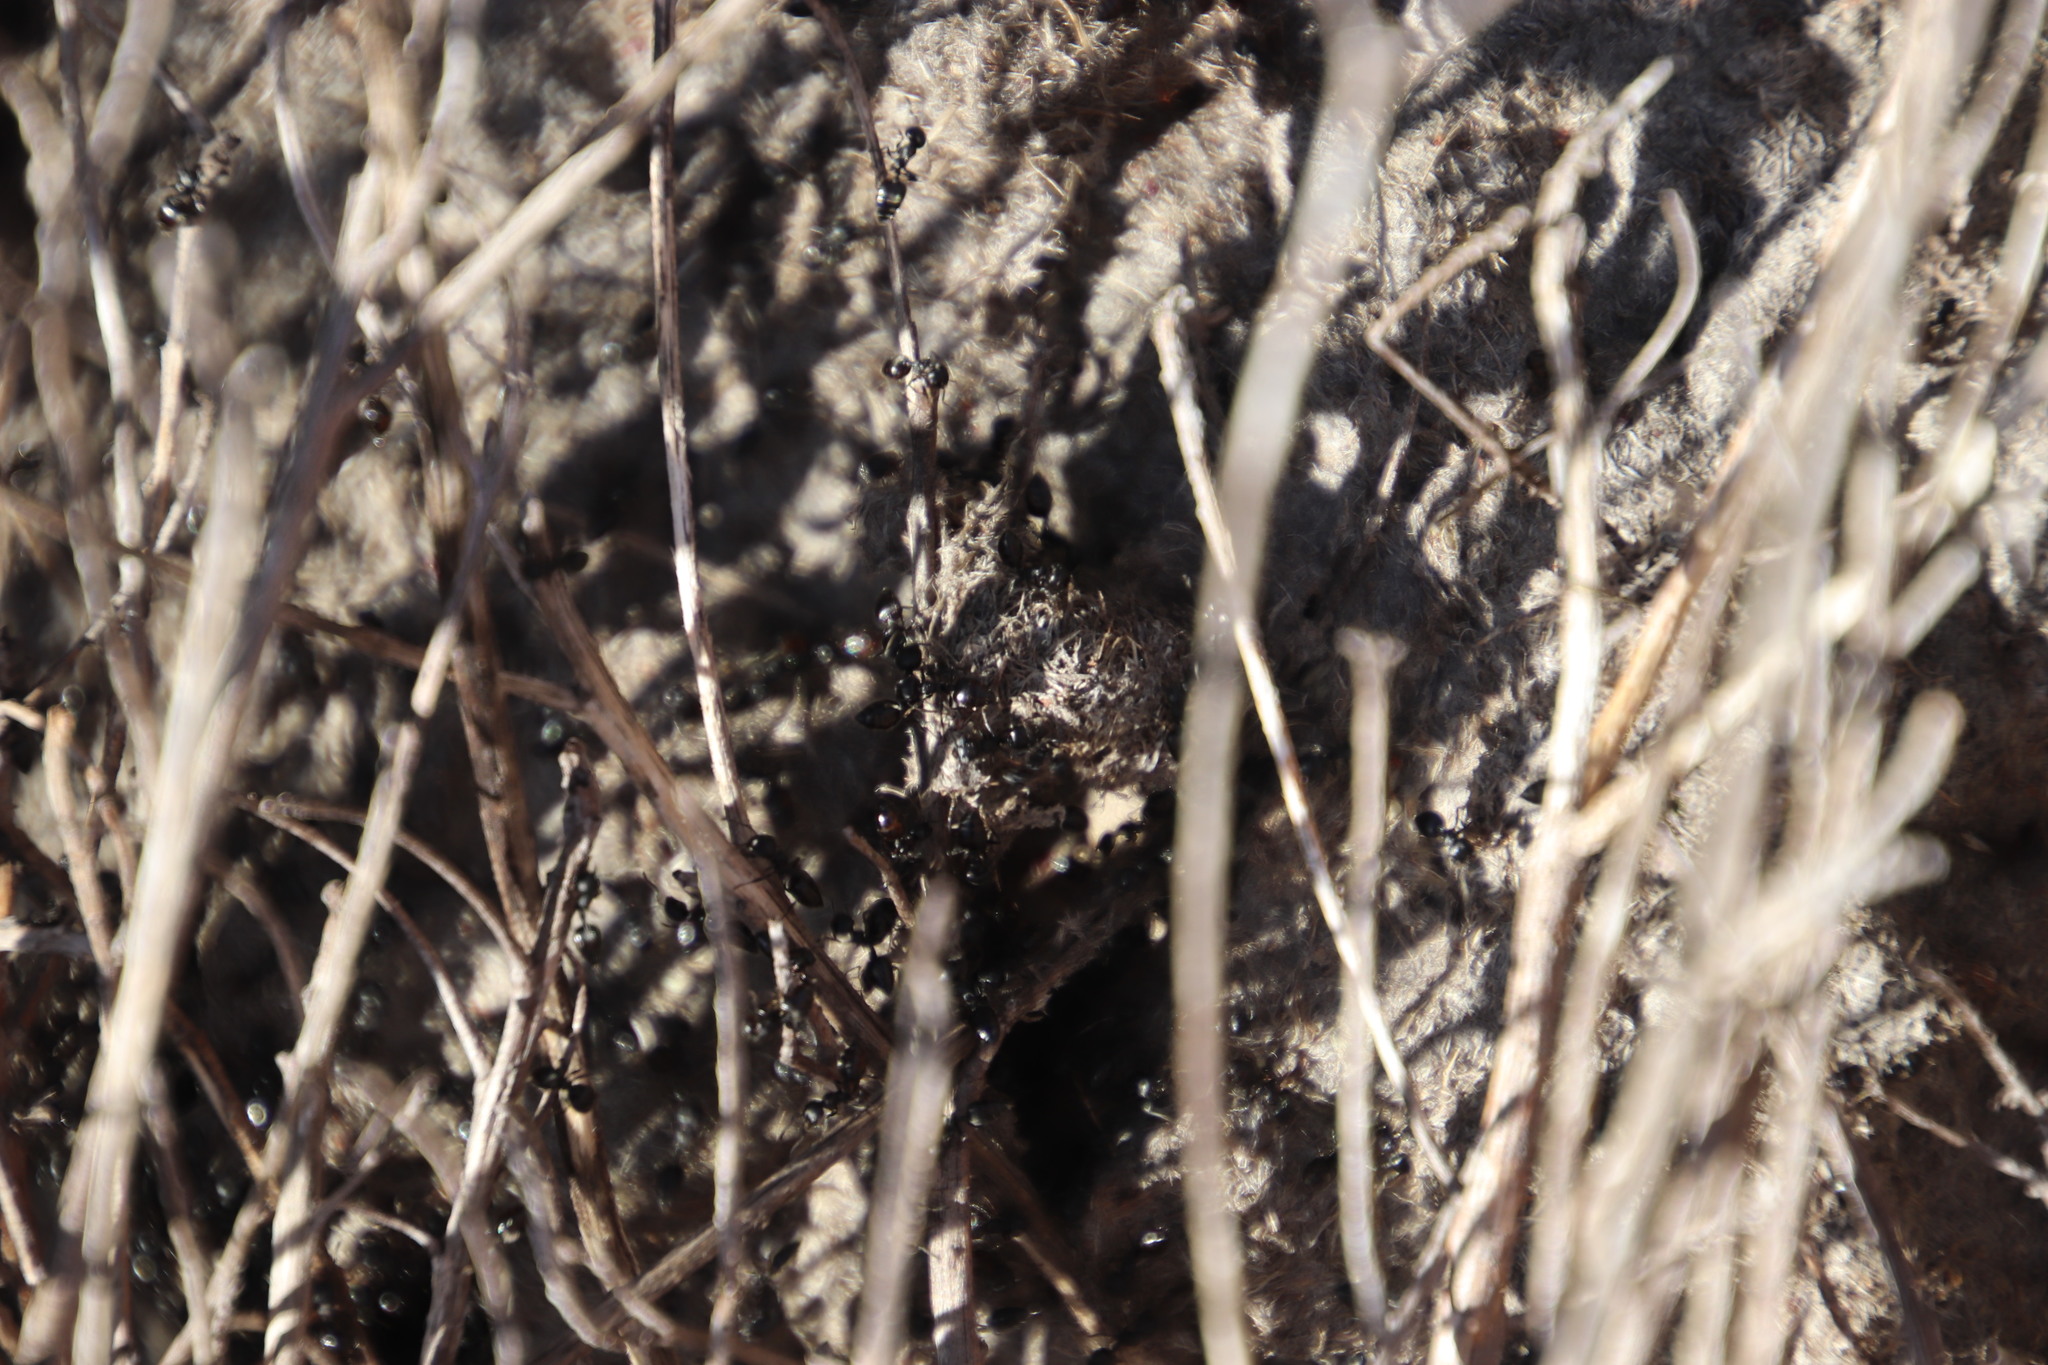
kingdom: Animalia
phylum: Arthropoda
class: Insecta
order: Hymenoptera
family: Formicidae
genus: Crematogaster
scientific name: Crematogaster peringueyi
